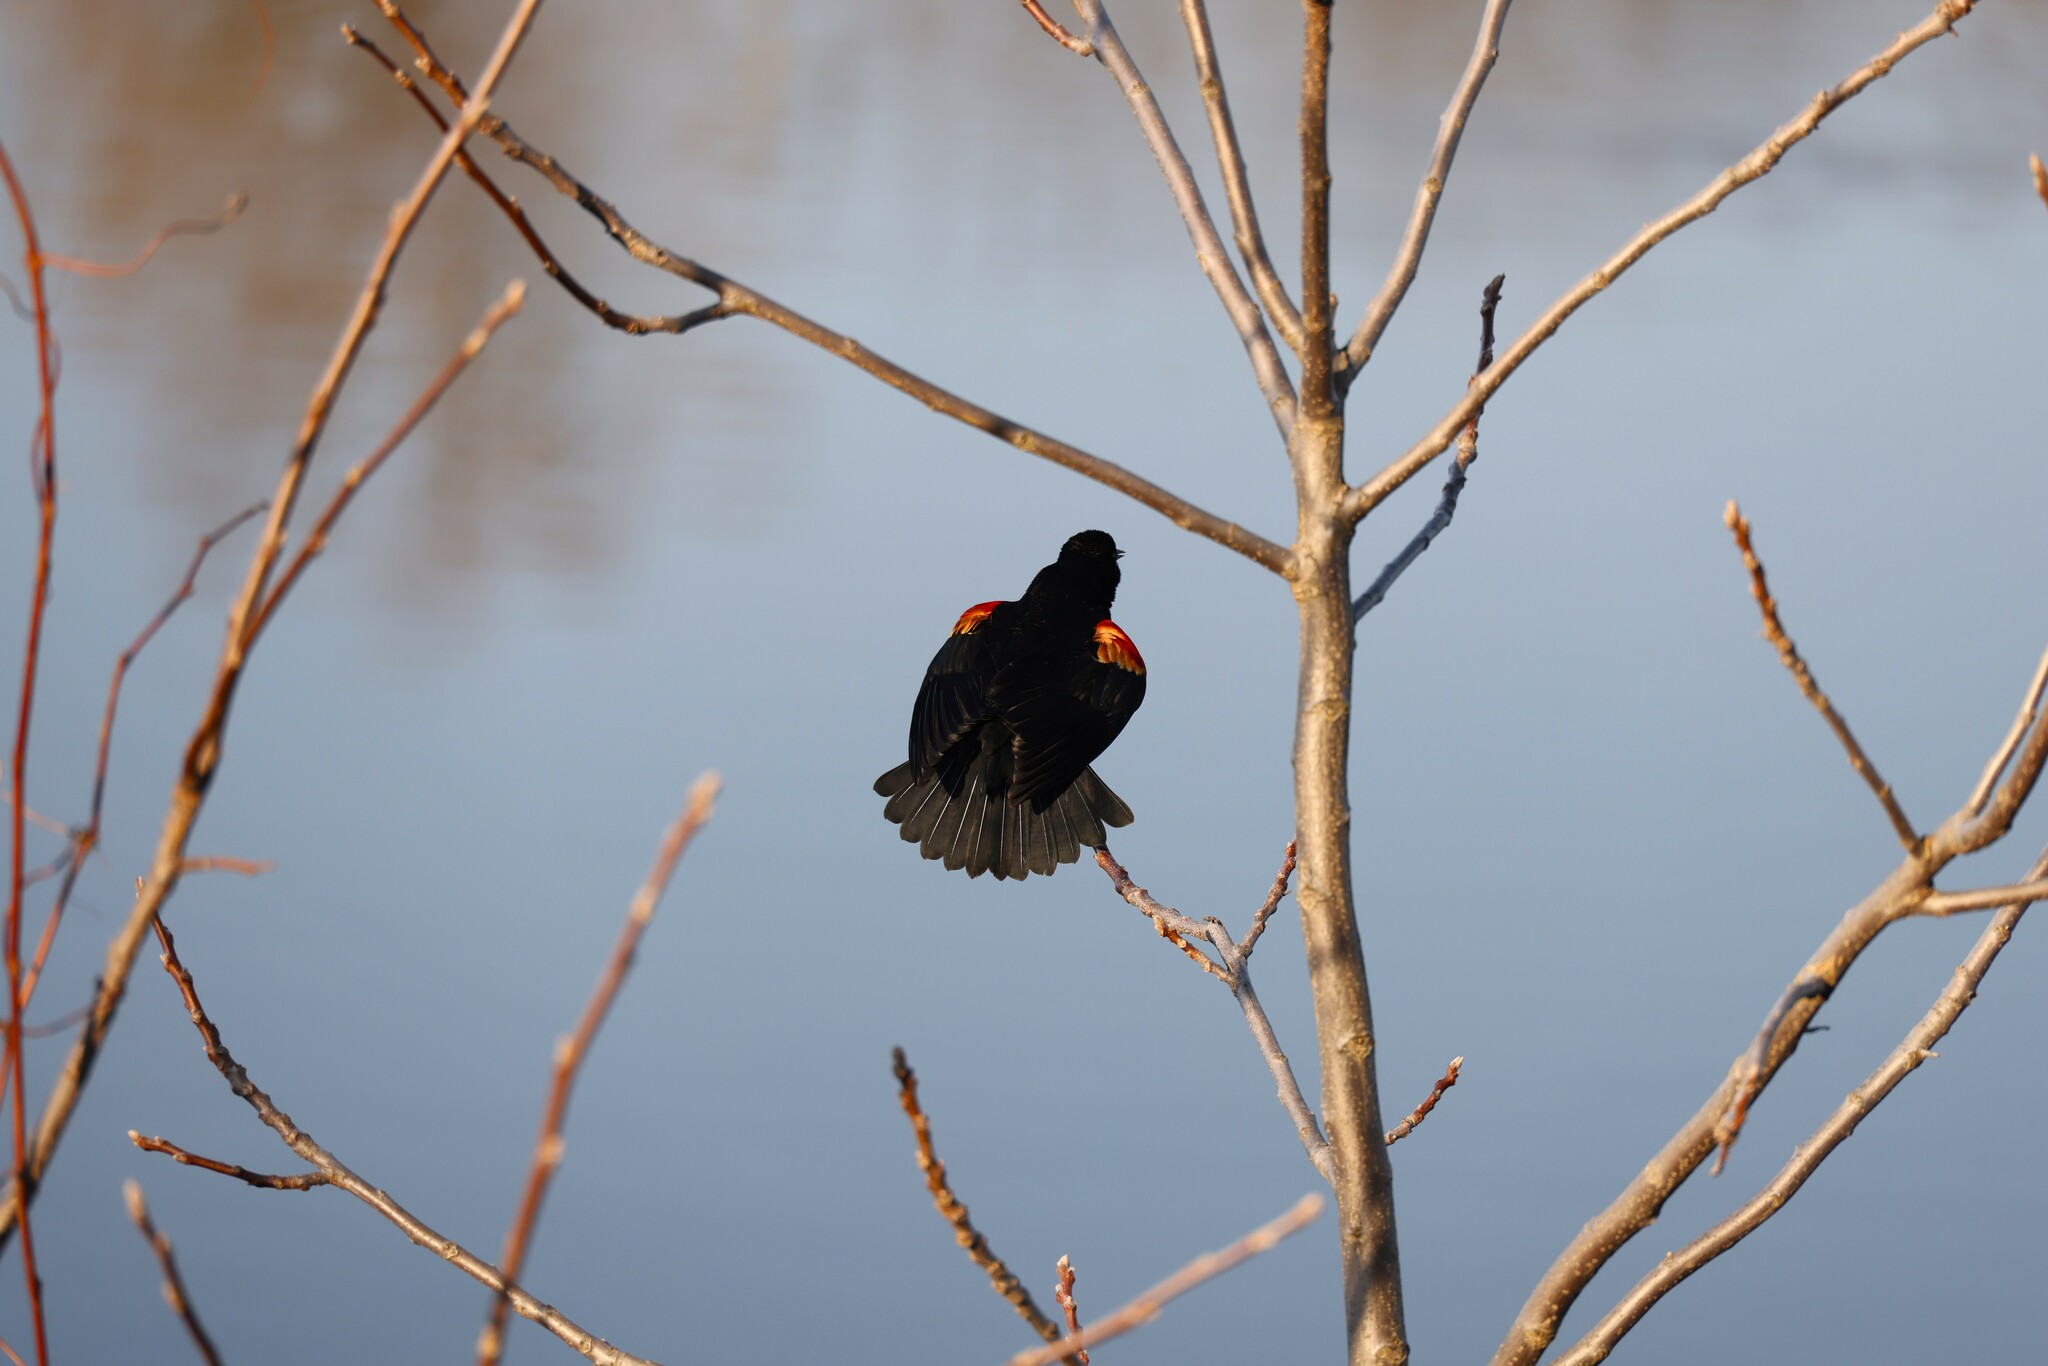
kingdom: Animalia
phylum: Chordata
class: Aves
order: Passeriformes
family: Icteridae
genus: Agelaius
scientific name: Agelaius phoeniceus
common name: Red-winged blackbird
